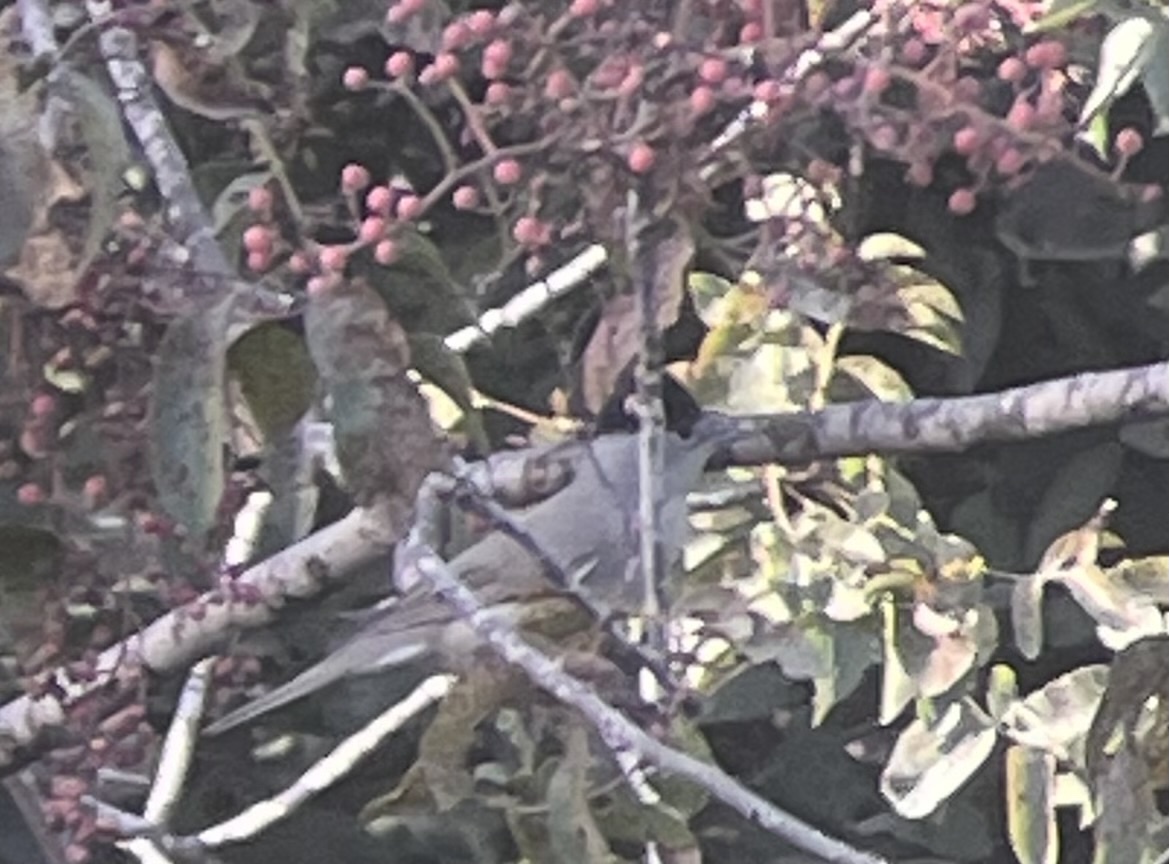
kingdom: Animalia
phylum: Chordata
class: Aves
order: Passeriformes
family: Sylviidae
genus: Sylvia
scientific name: Sylvia atricapilla
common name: Eurasian blackcap
